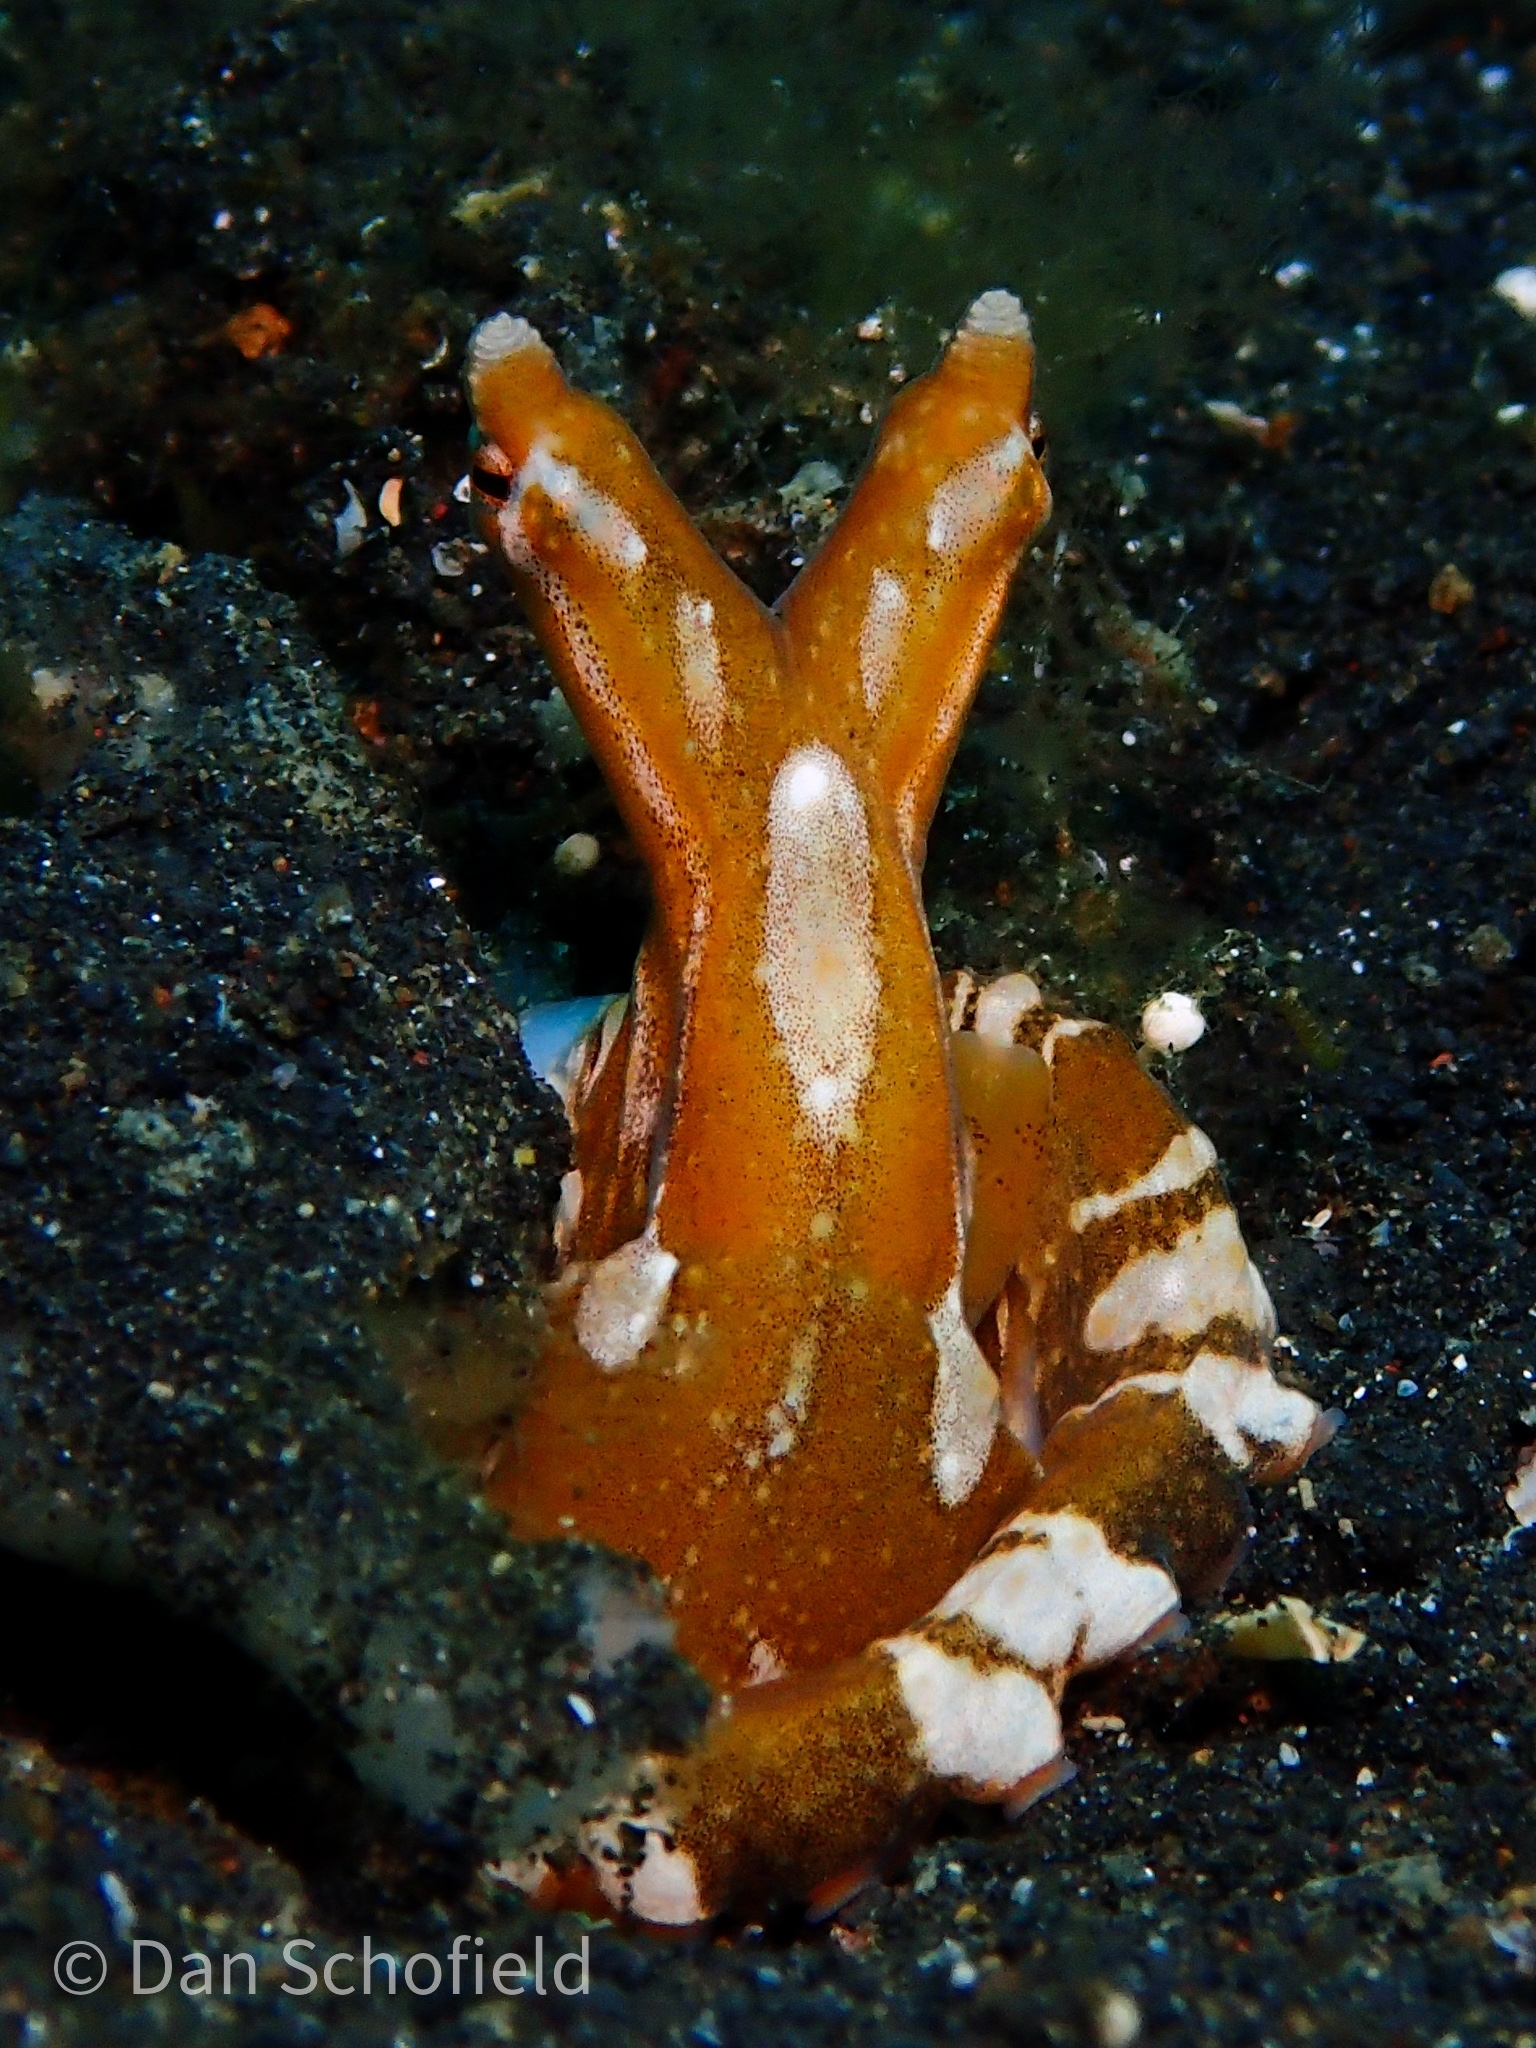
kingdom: Animalia
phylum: Mollusca
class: Cephalopoda
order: Octopoda
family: Octopodidae
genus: Wunderpus
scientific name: Wunderpus photogenicus
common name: Wunderpus
